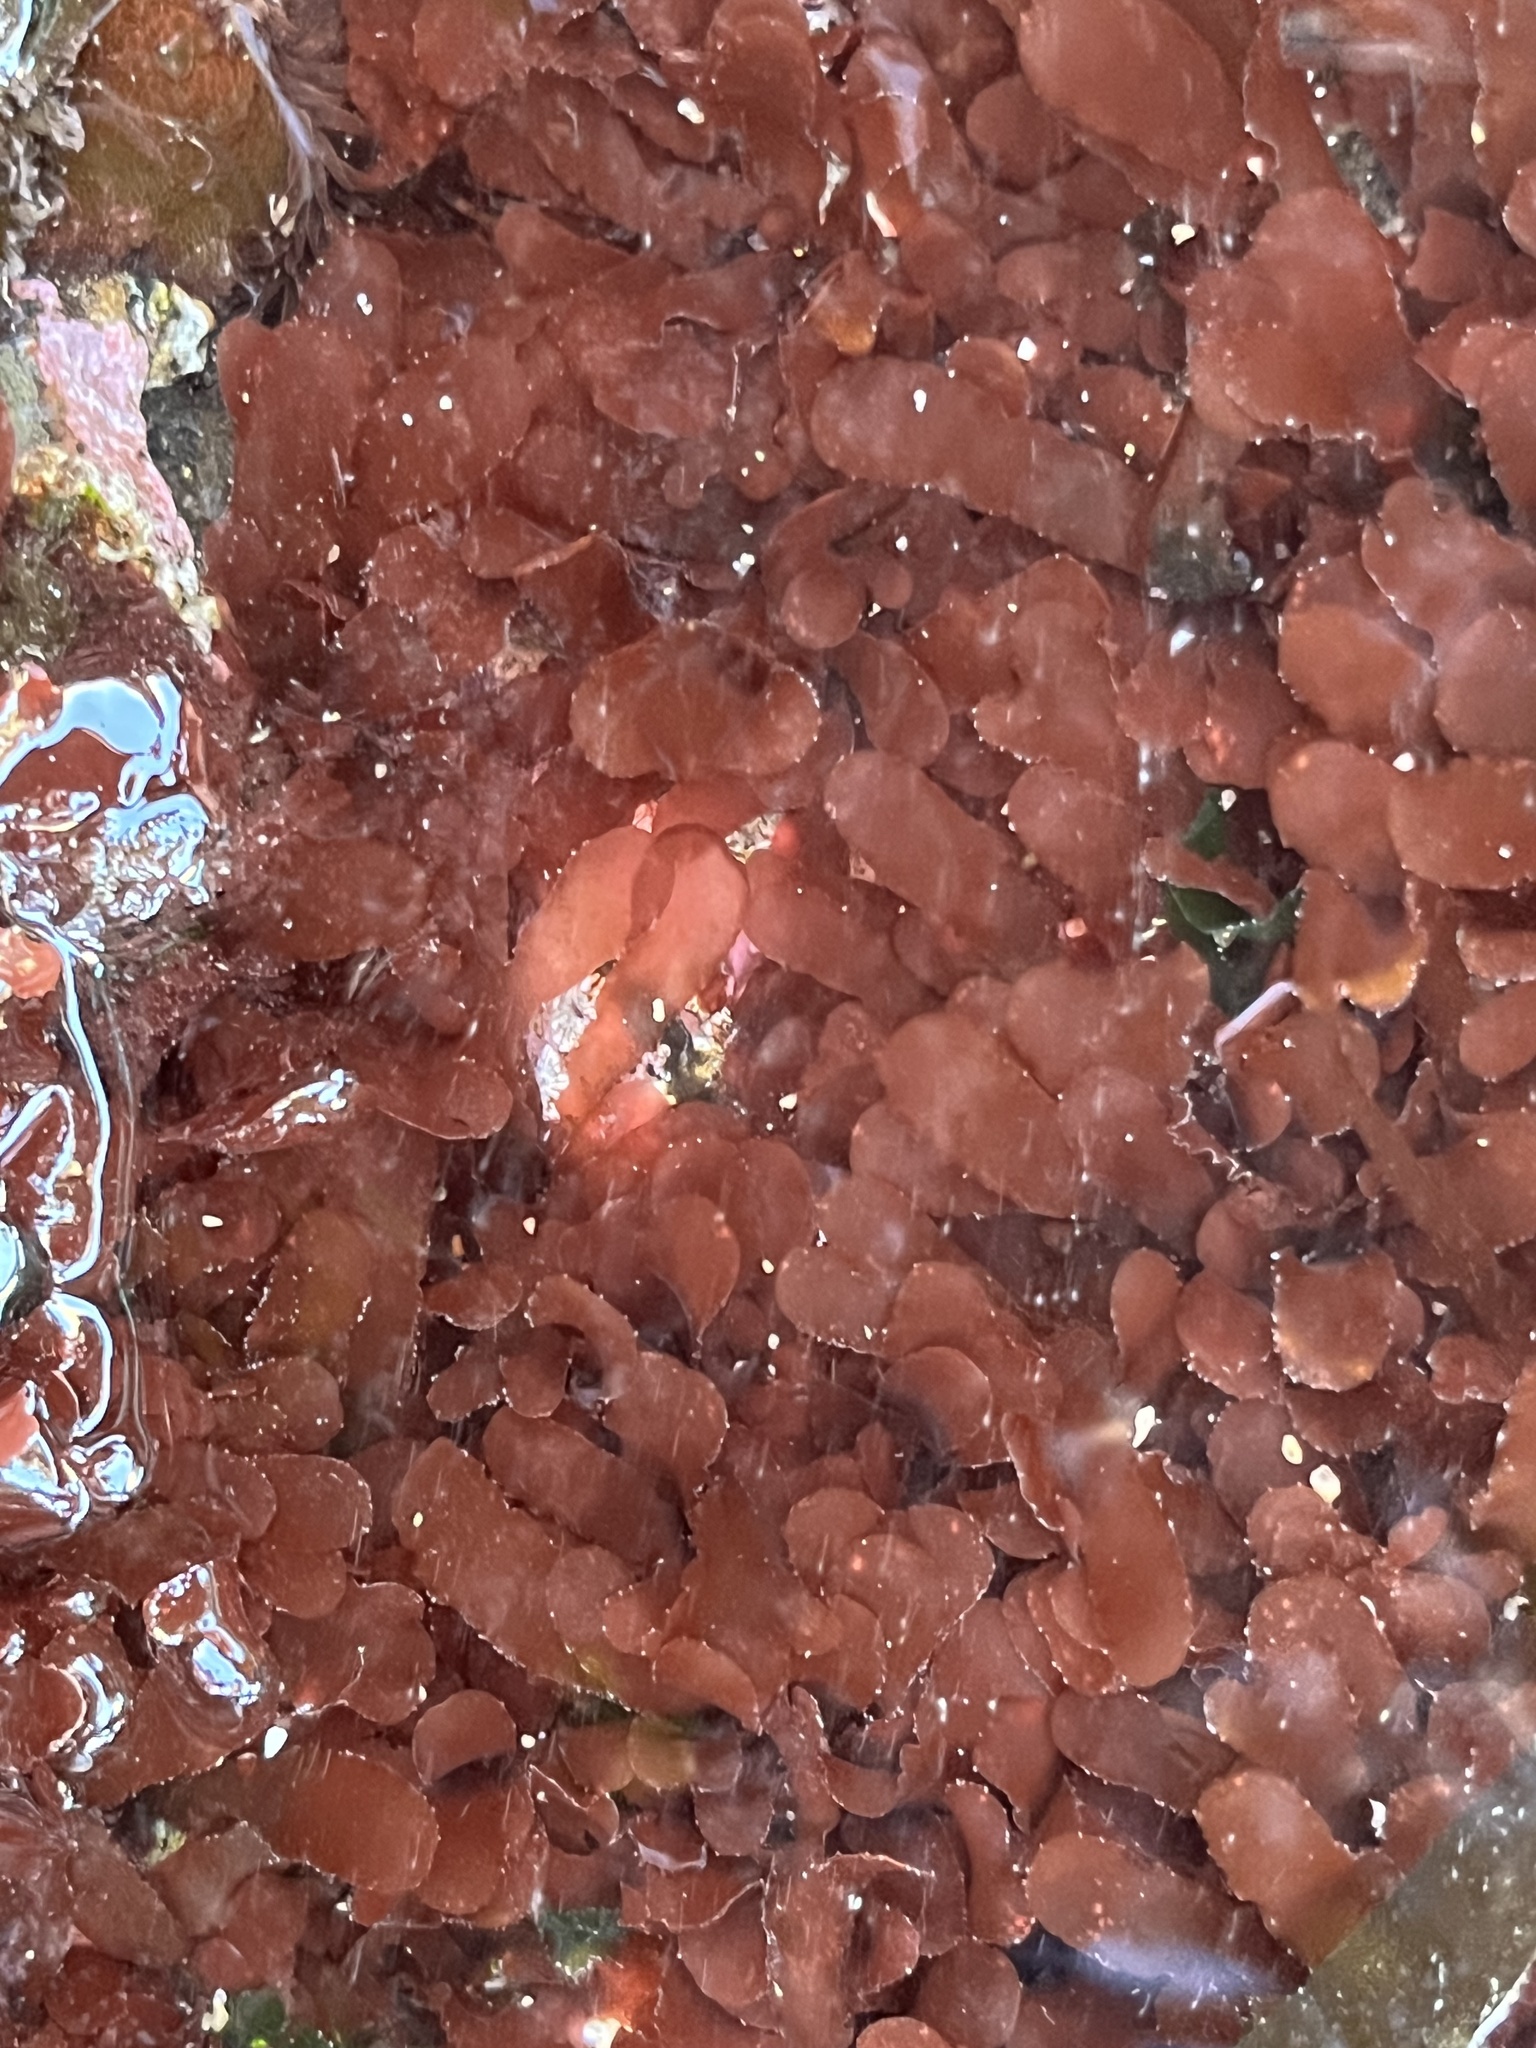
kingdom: Plantae
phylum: Rhodophyta
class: Florideophyceae
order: Gigartinales
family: Phyllophoraceae
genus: Schottera
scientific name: Schottera nicaeensis
